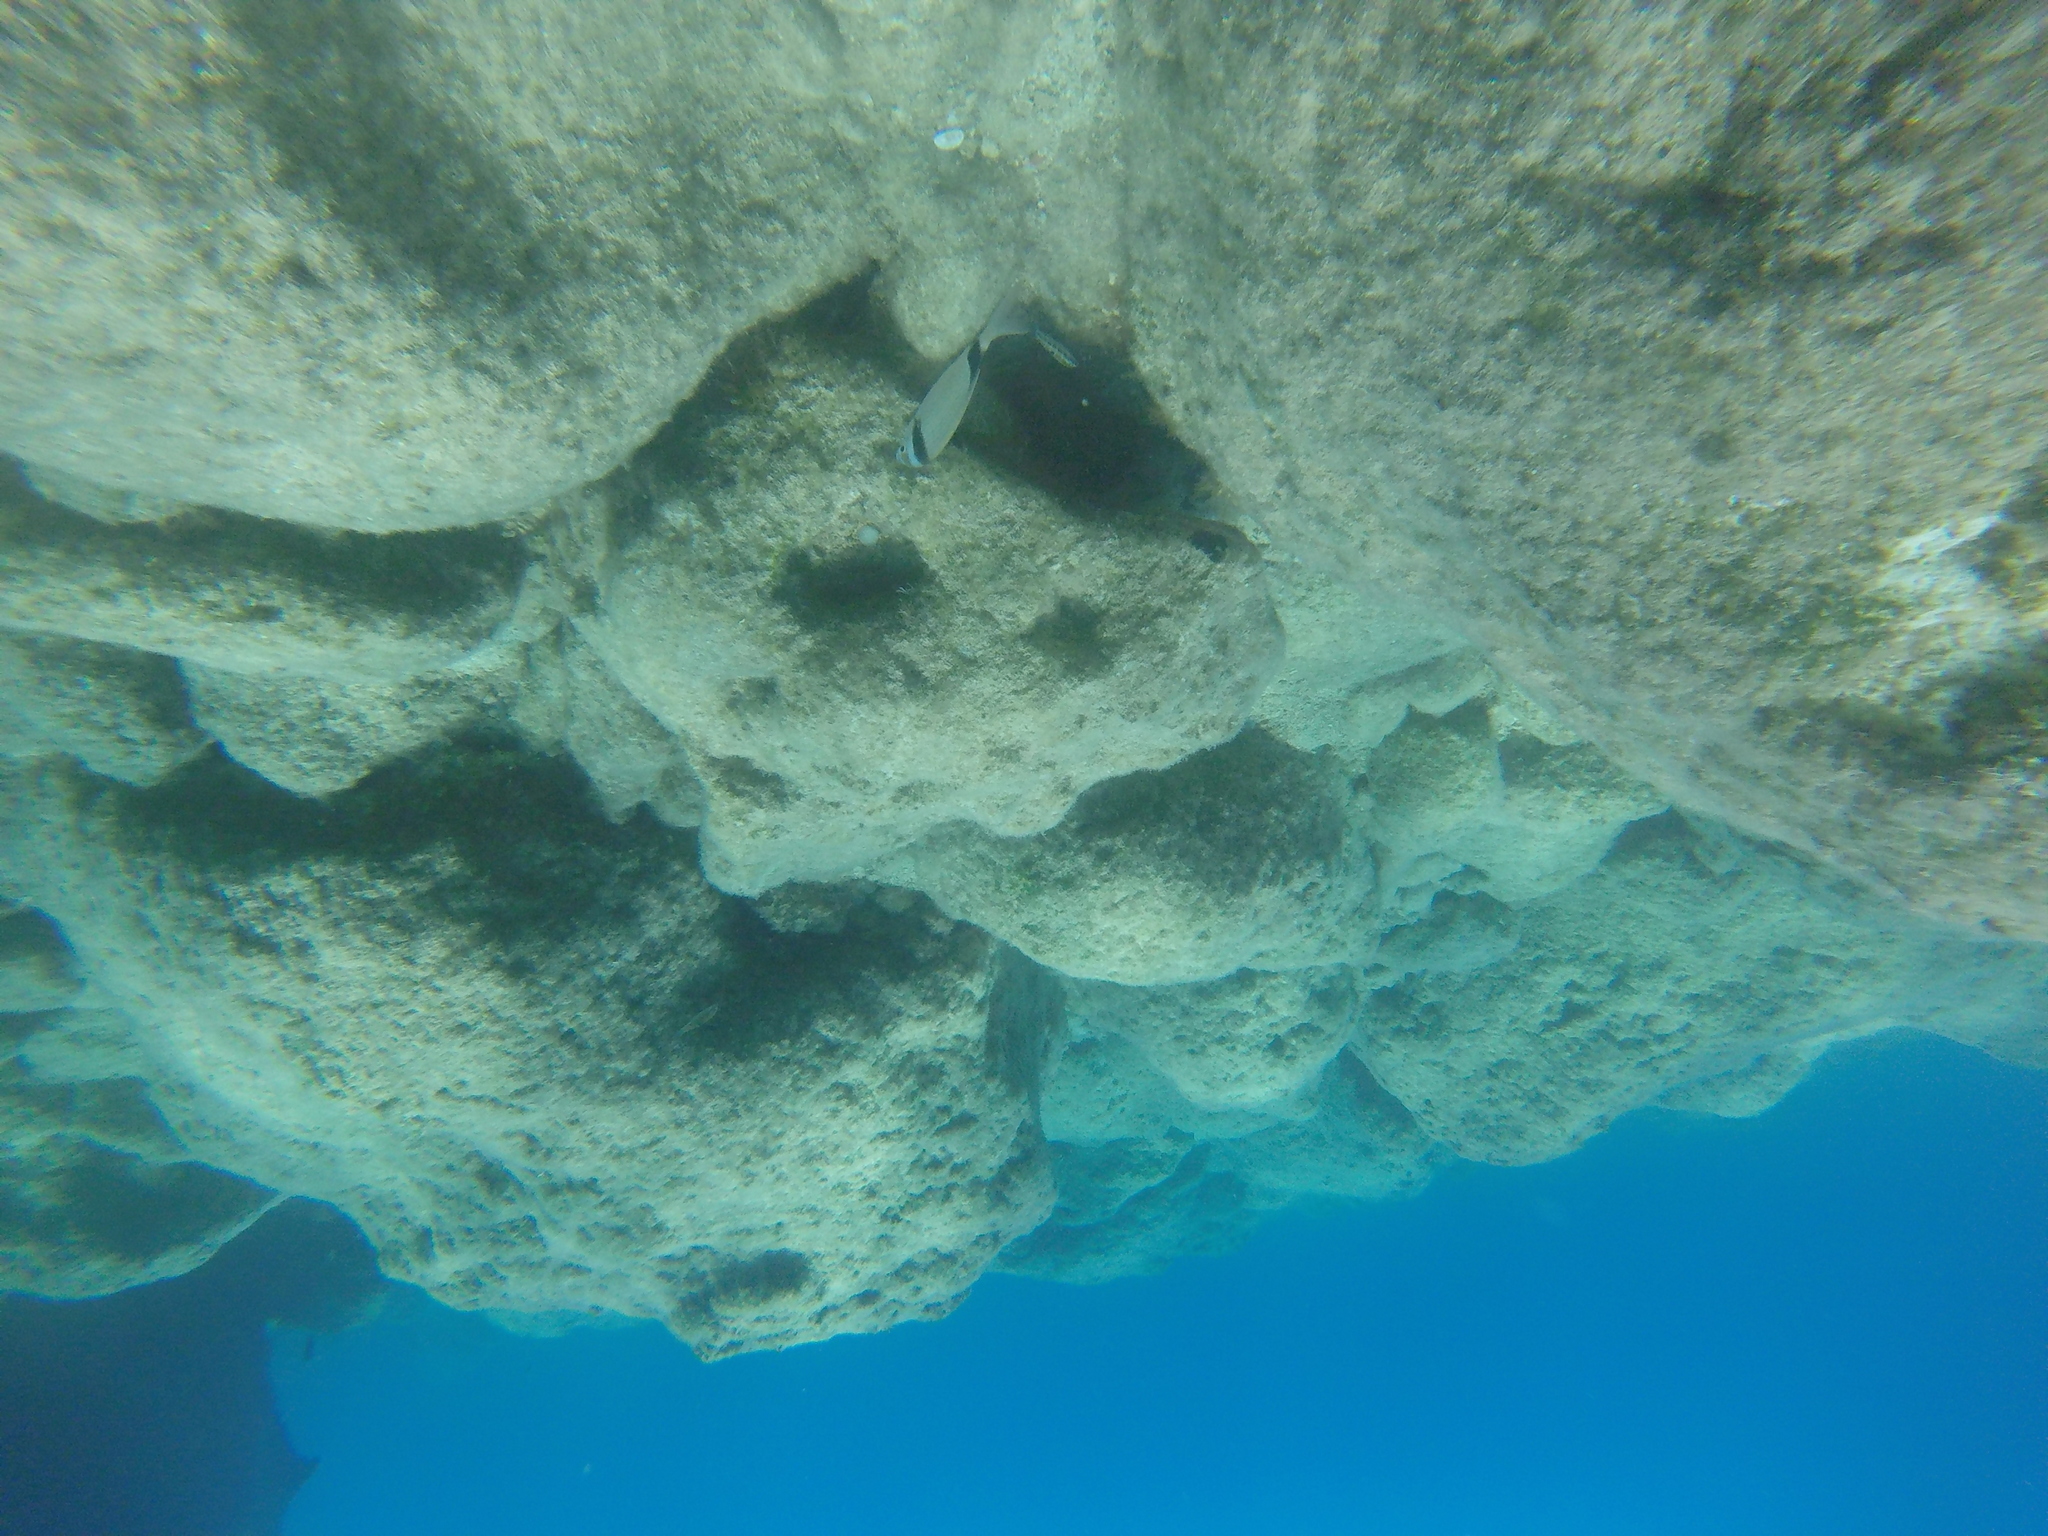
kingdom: Animalia
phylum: Chordata
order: Perciformes
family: Sparidae
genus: Diplodus
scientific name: Diplodus vulgaris
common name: Common two-banded seabream
